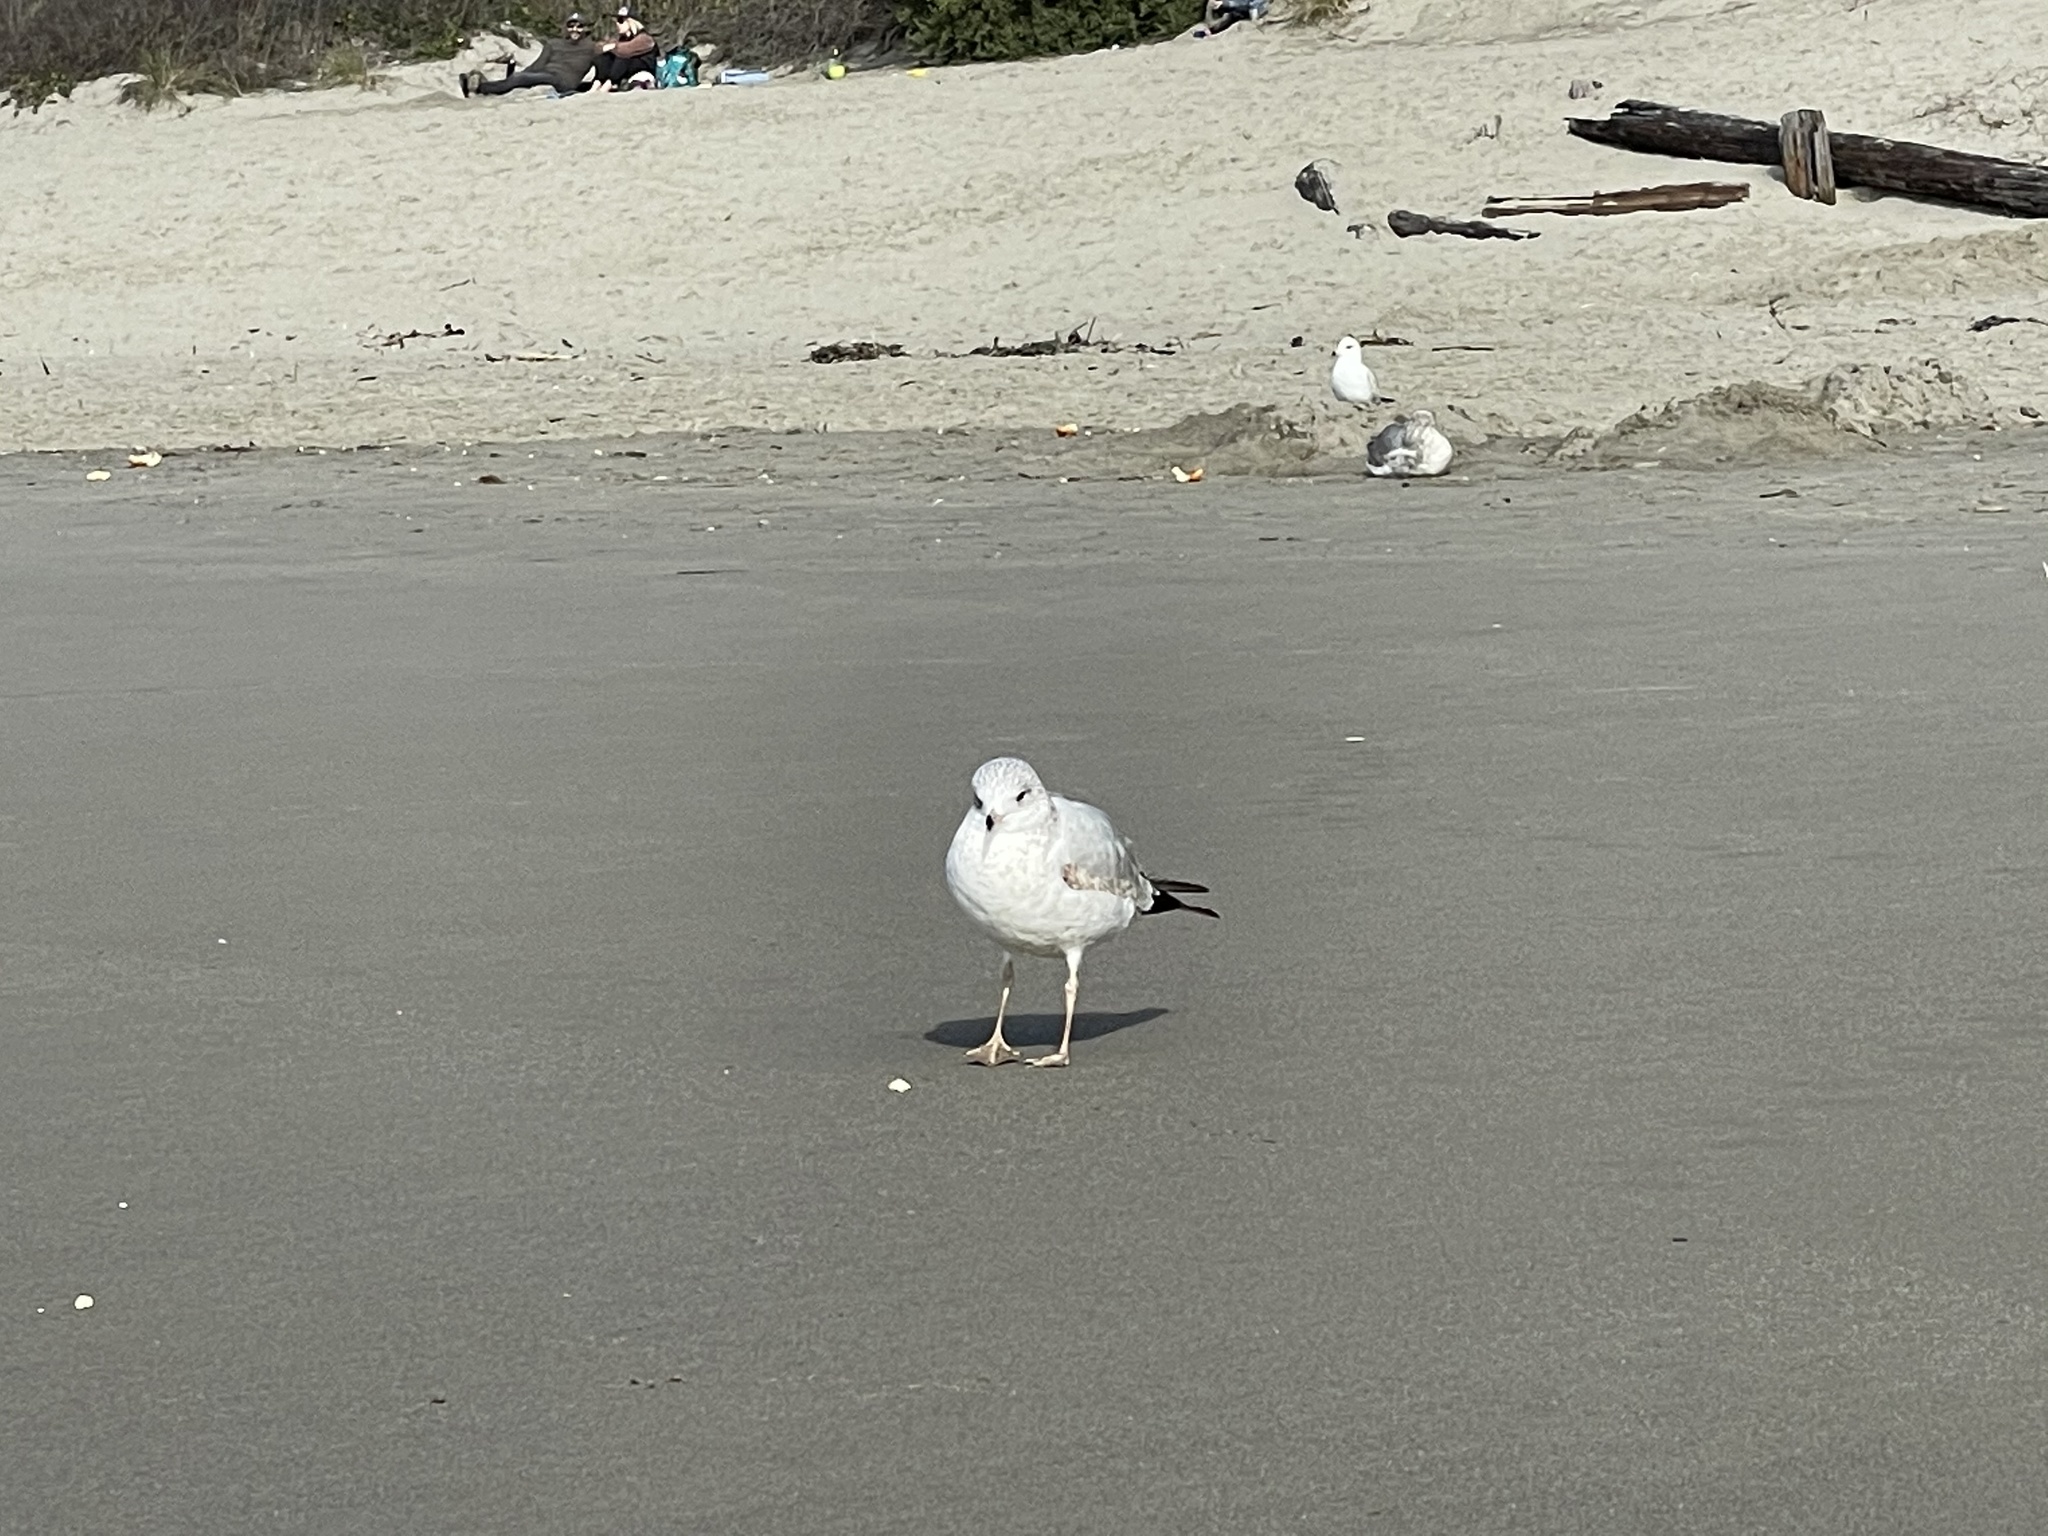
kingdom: Animalia
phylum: Chordata
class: Aves
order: Charadriiformes
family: Laridae
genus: Larus
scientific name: Larus delawarensis
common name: Ring-billed gull
